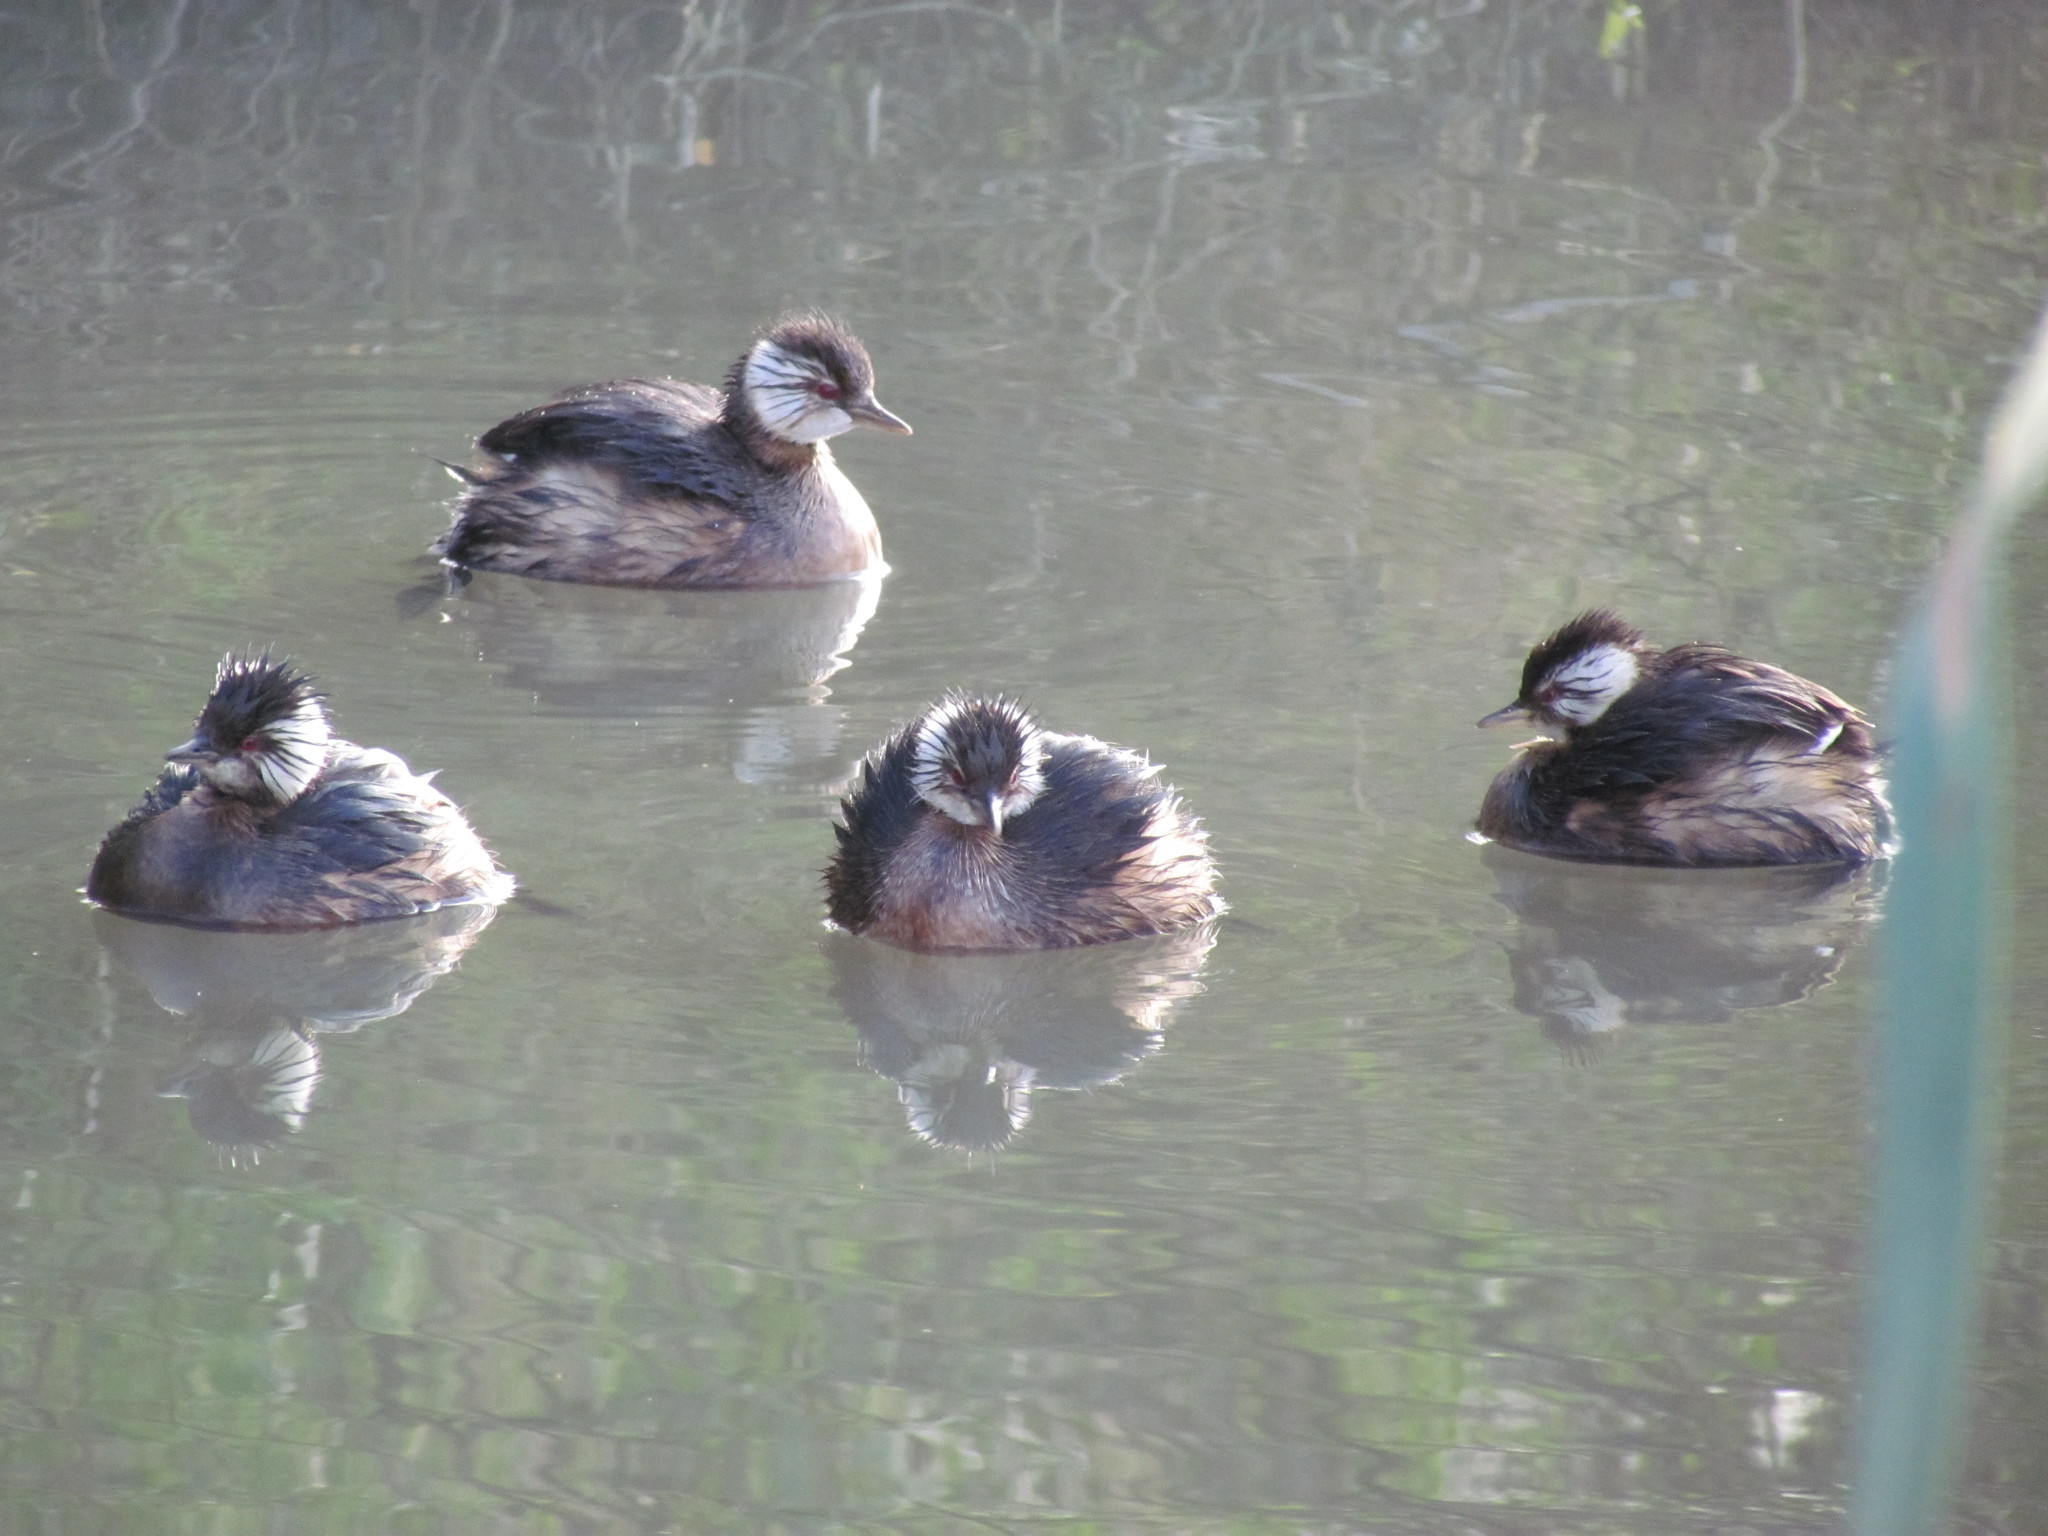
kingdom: Animalia
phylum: Chordata
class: Aves
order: Podicipediformes
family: Podicipedidae
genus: Rollandia
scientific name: Rollandia rolland
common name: White-tufted grebe
